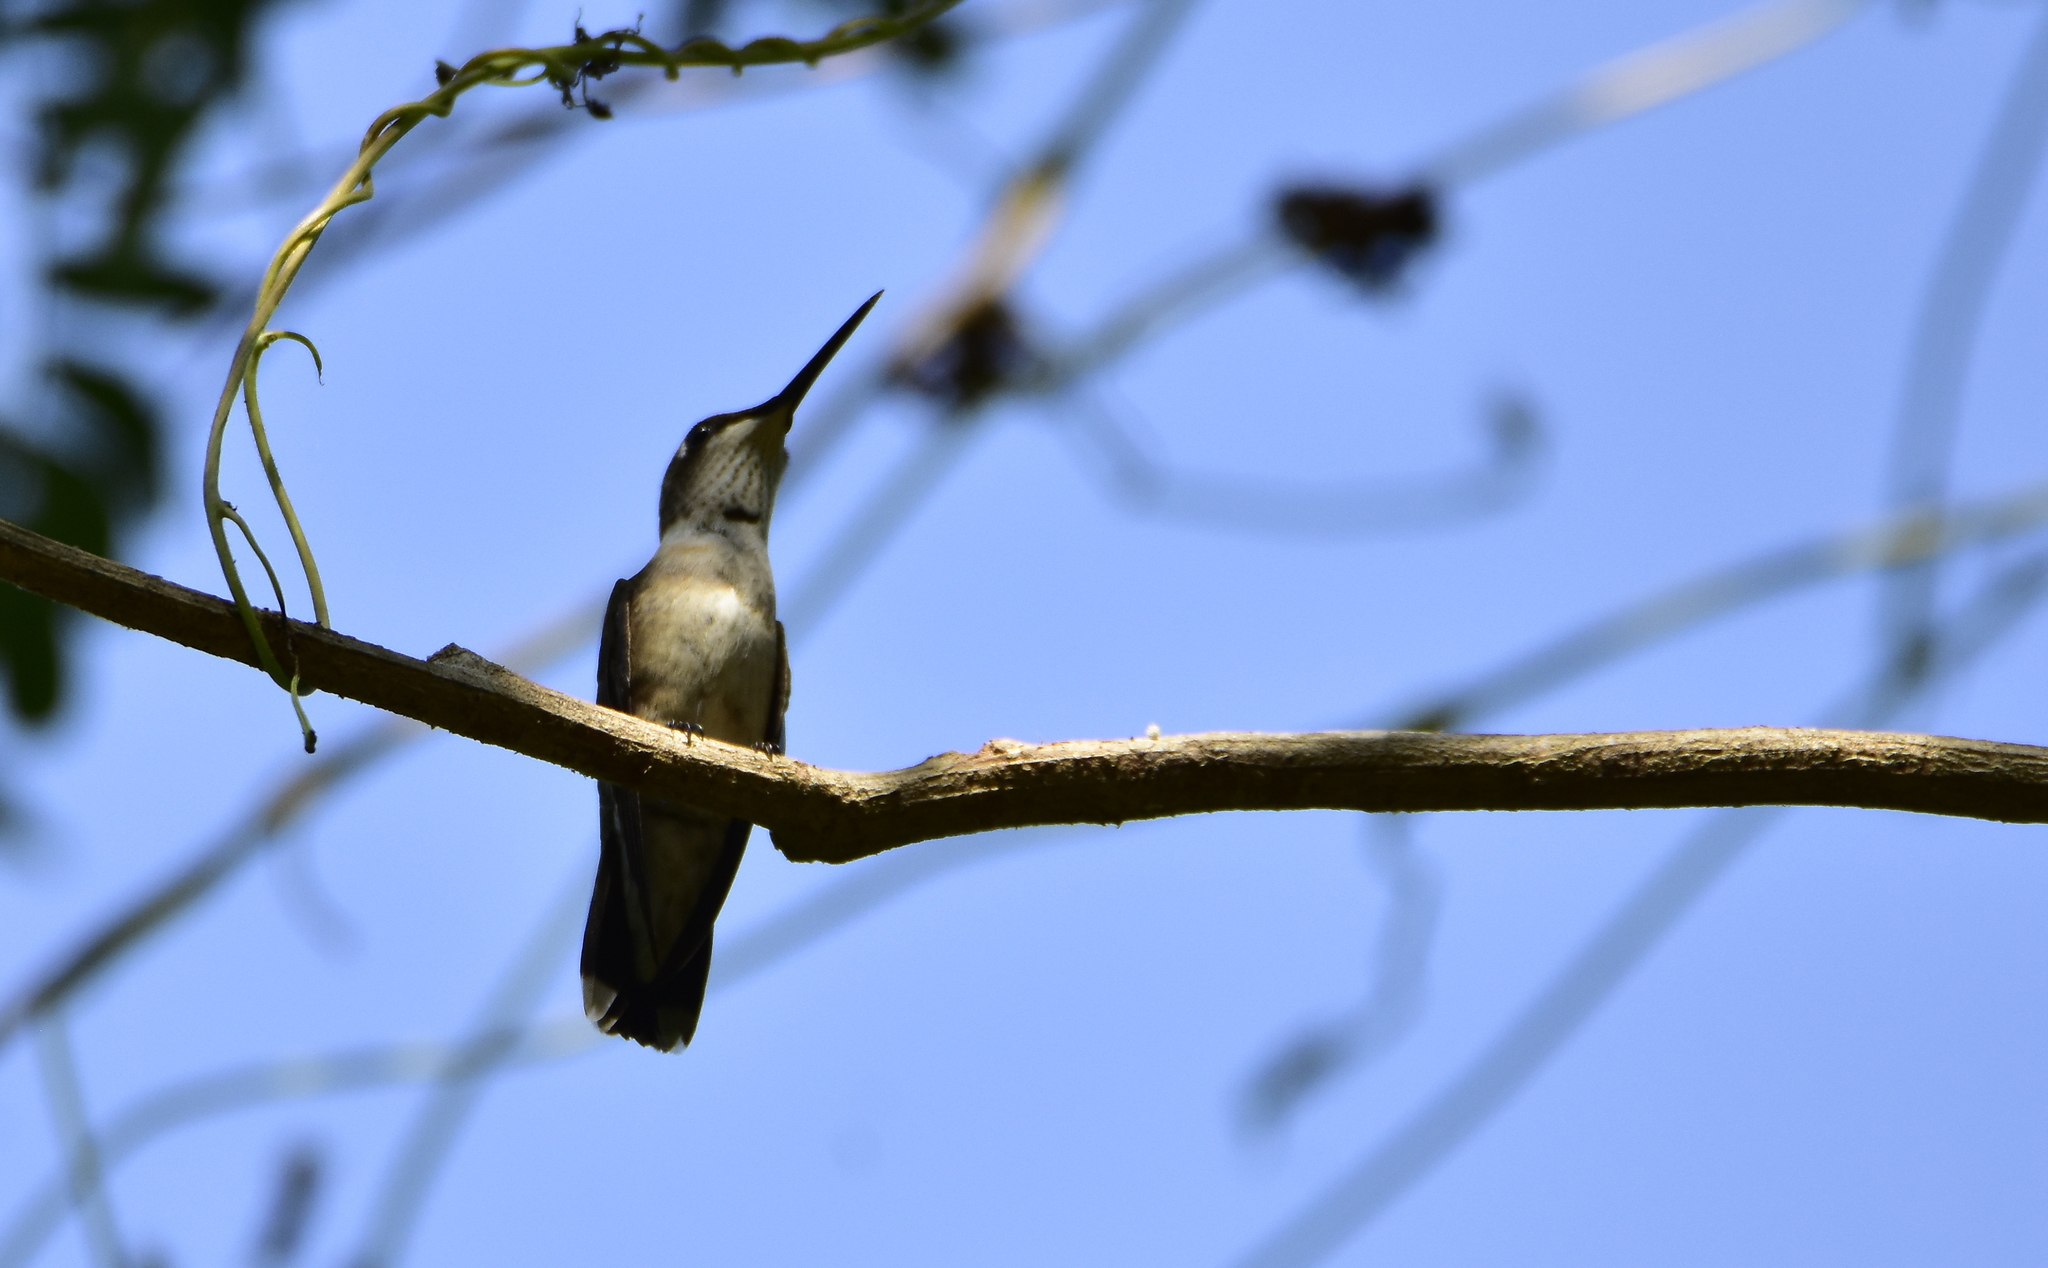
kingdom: Animalia
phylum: Chordata
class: Aves
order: Apodiformes
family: Trochilidae
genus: Archilochus
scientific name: Archilochus alexandri
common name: Black-chinned hummingbird
